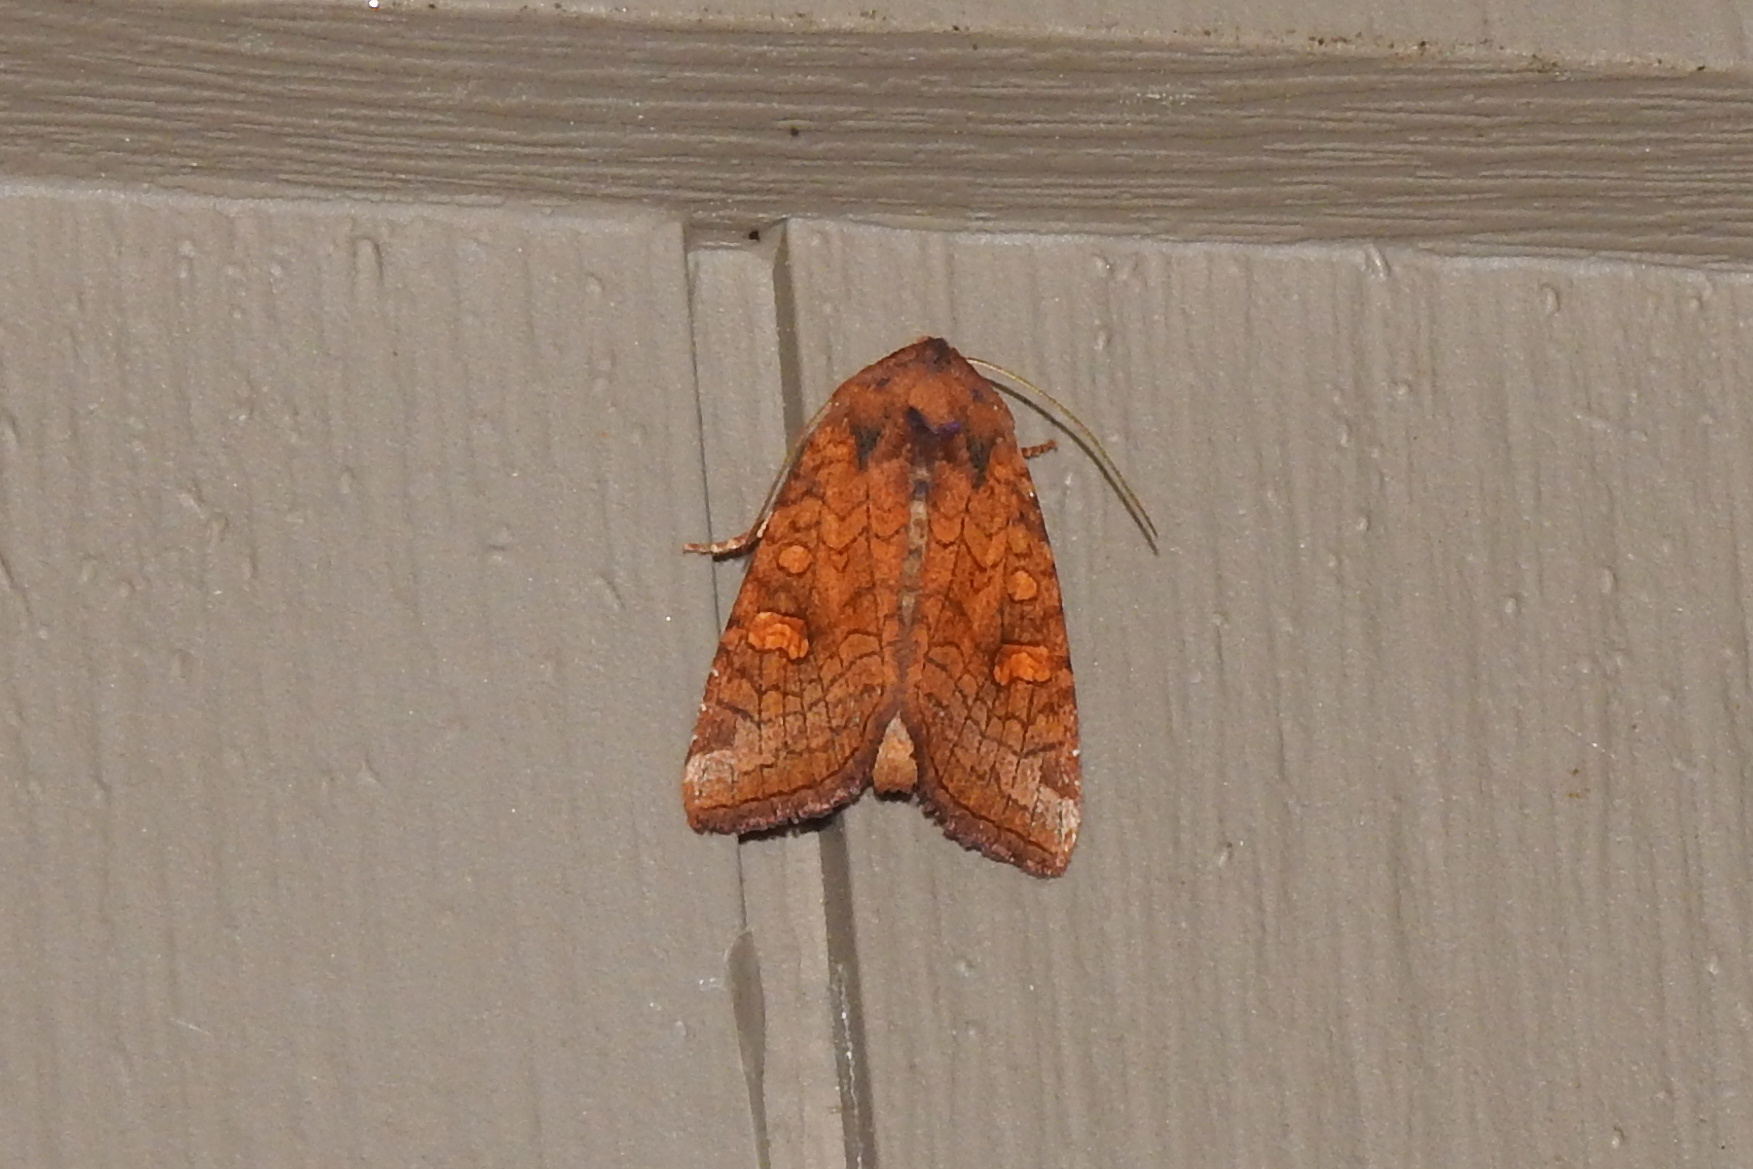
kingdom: Animalia
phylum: Arthropoda
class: Insecta
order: Lepidoptera
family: Noctuidae
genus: Amphipoea
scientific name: Amphipoea
